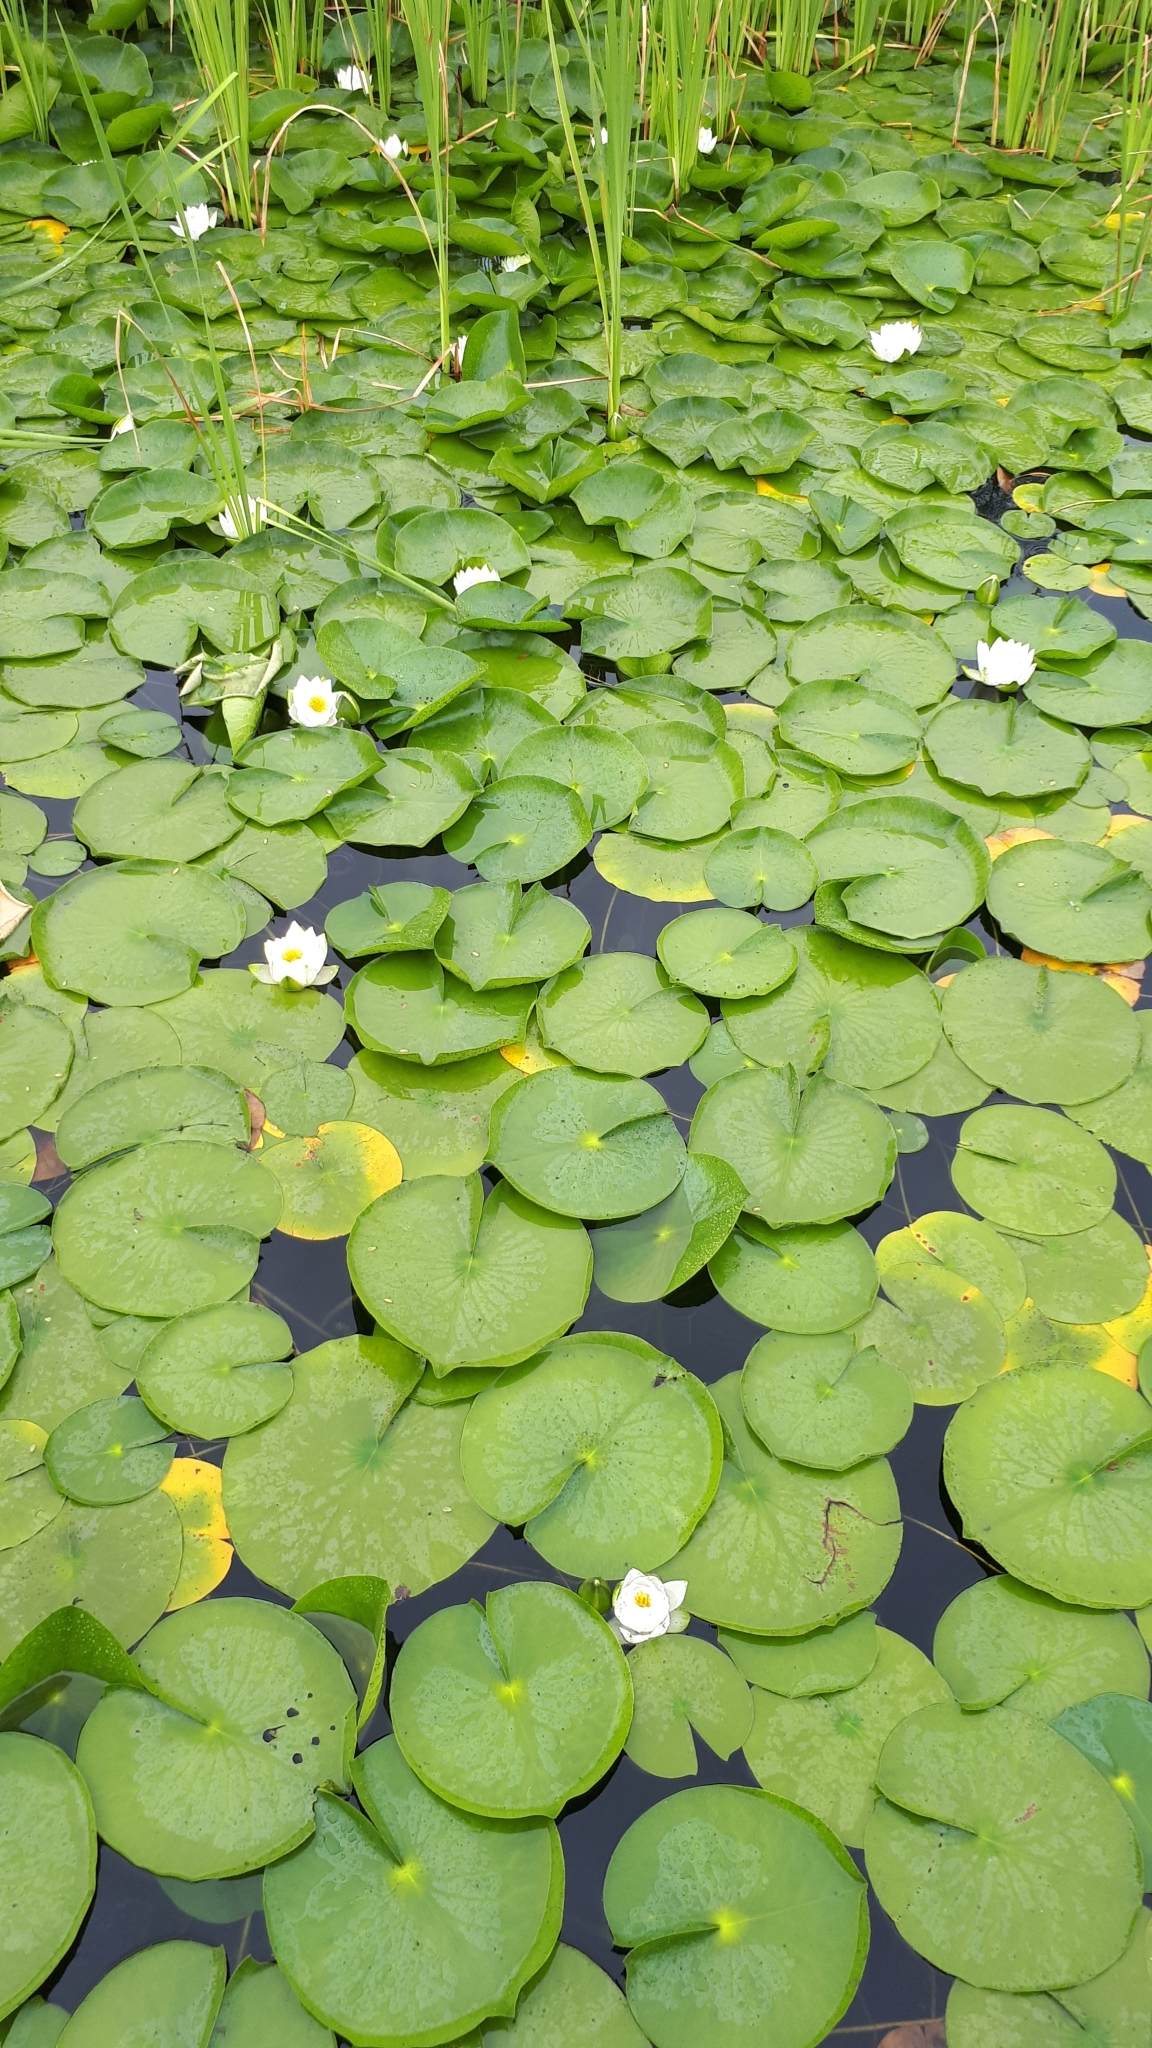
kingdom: Plantae
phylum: Tracheophyta
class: Magnoliopsida
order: Nymphaeales
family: Nymphaeaceae
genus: Nymphaea
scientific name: Nymphaea odorata
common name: Fragrant water-lily
